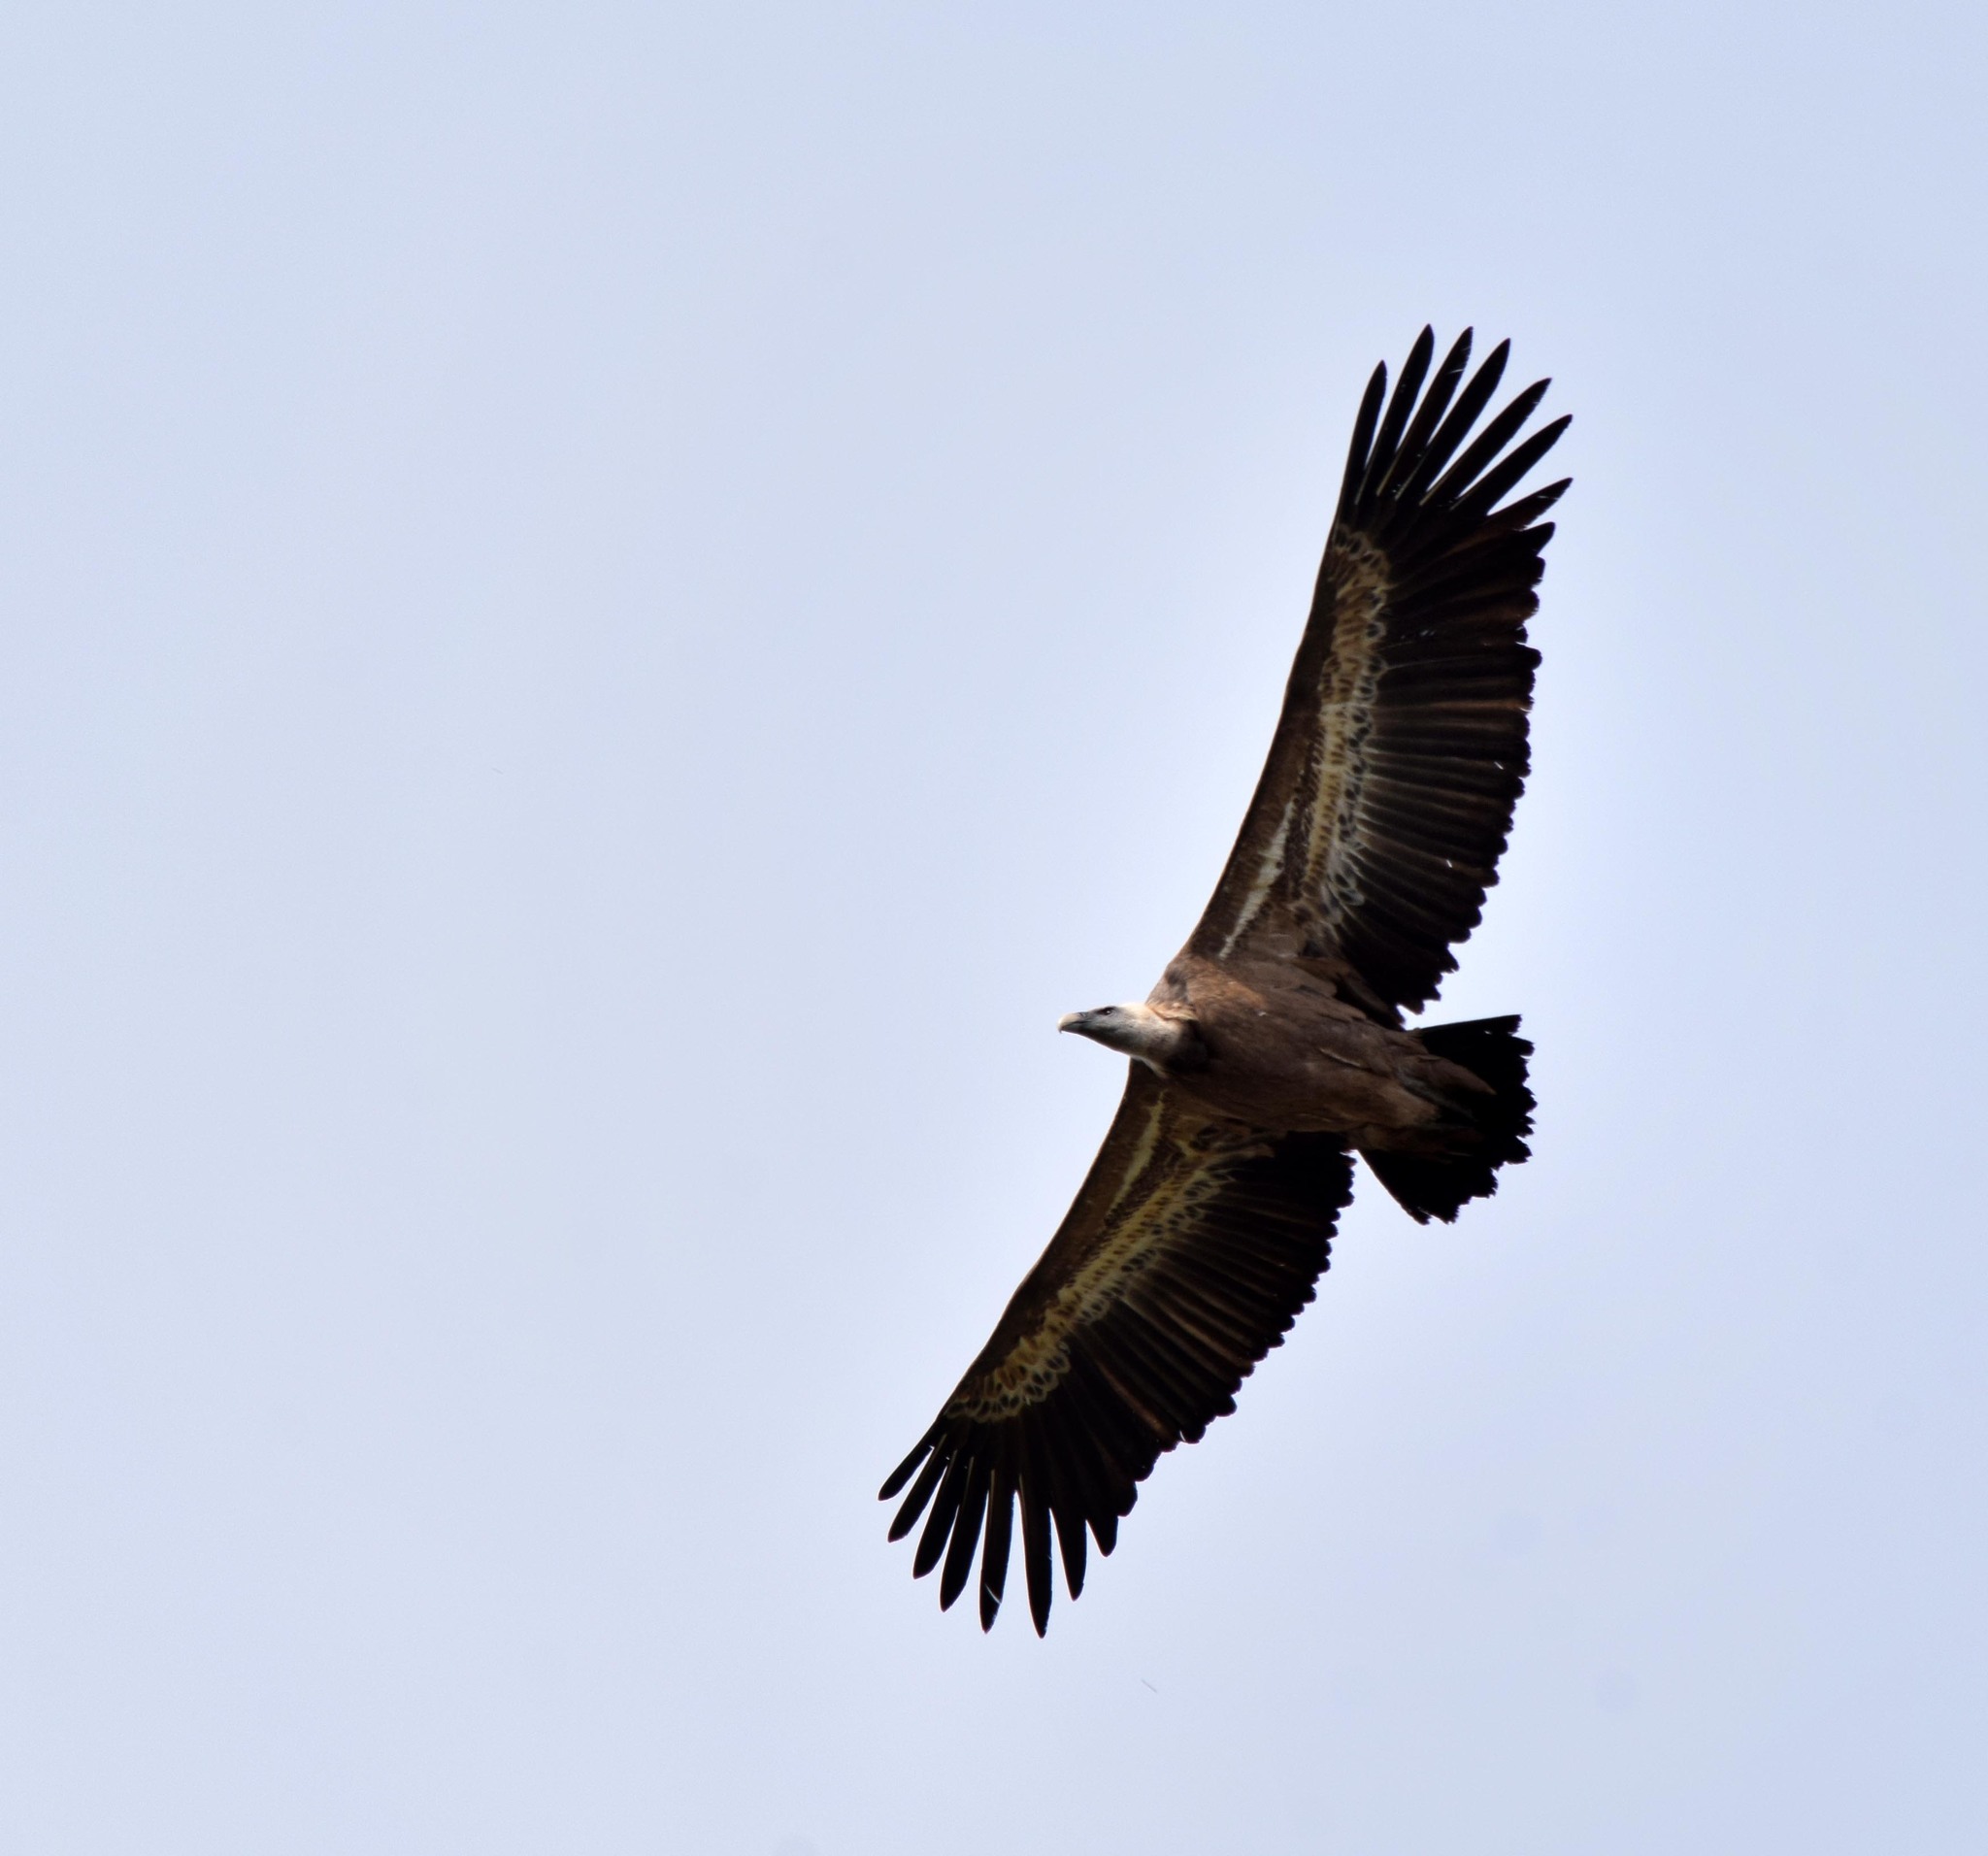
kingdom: Animalia
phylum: Chordata
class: Aves
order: Accipitriformes
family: Accipitridae
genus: Gyps
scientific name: Gyps fulvus
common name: Griffon vulture
